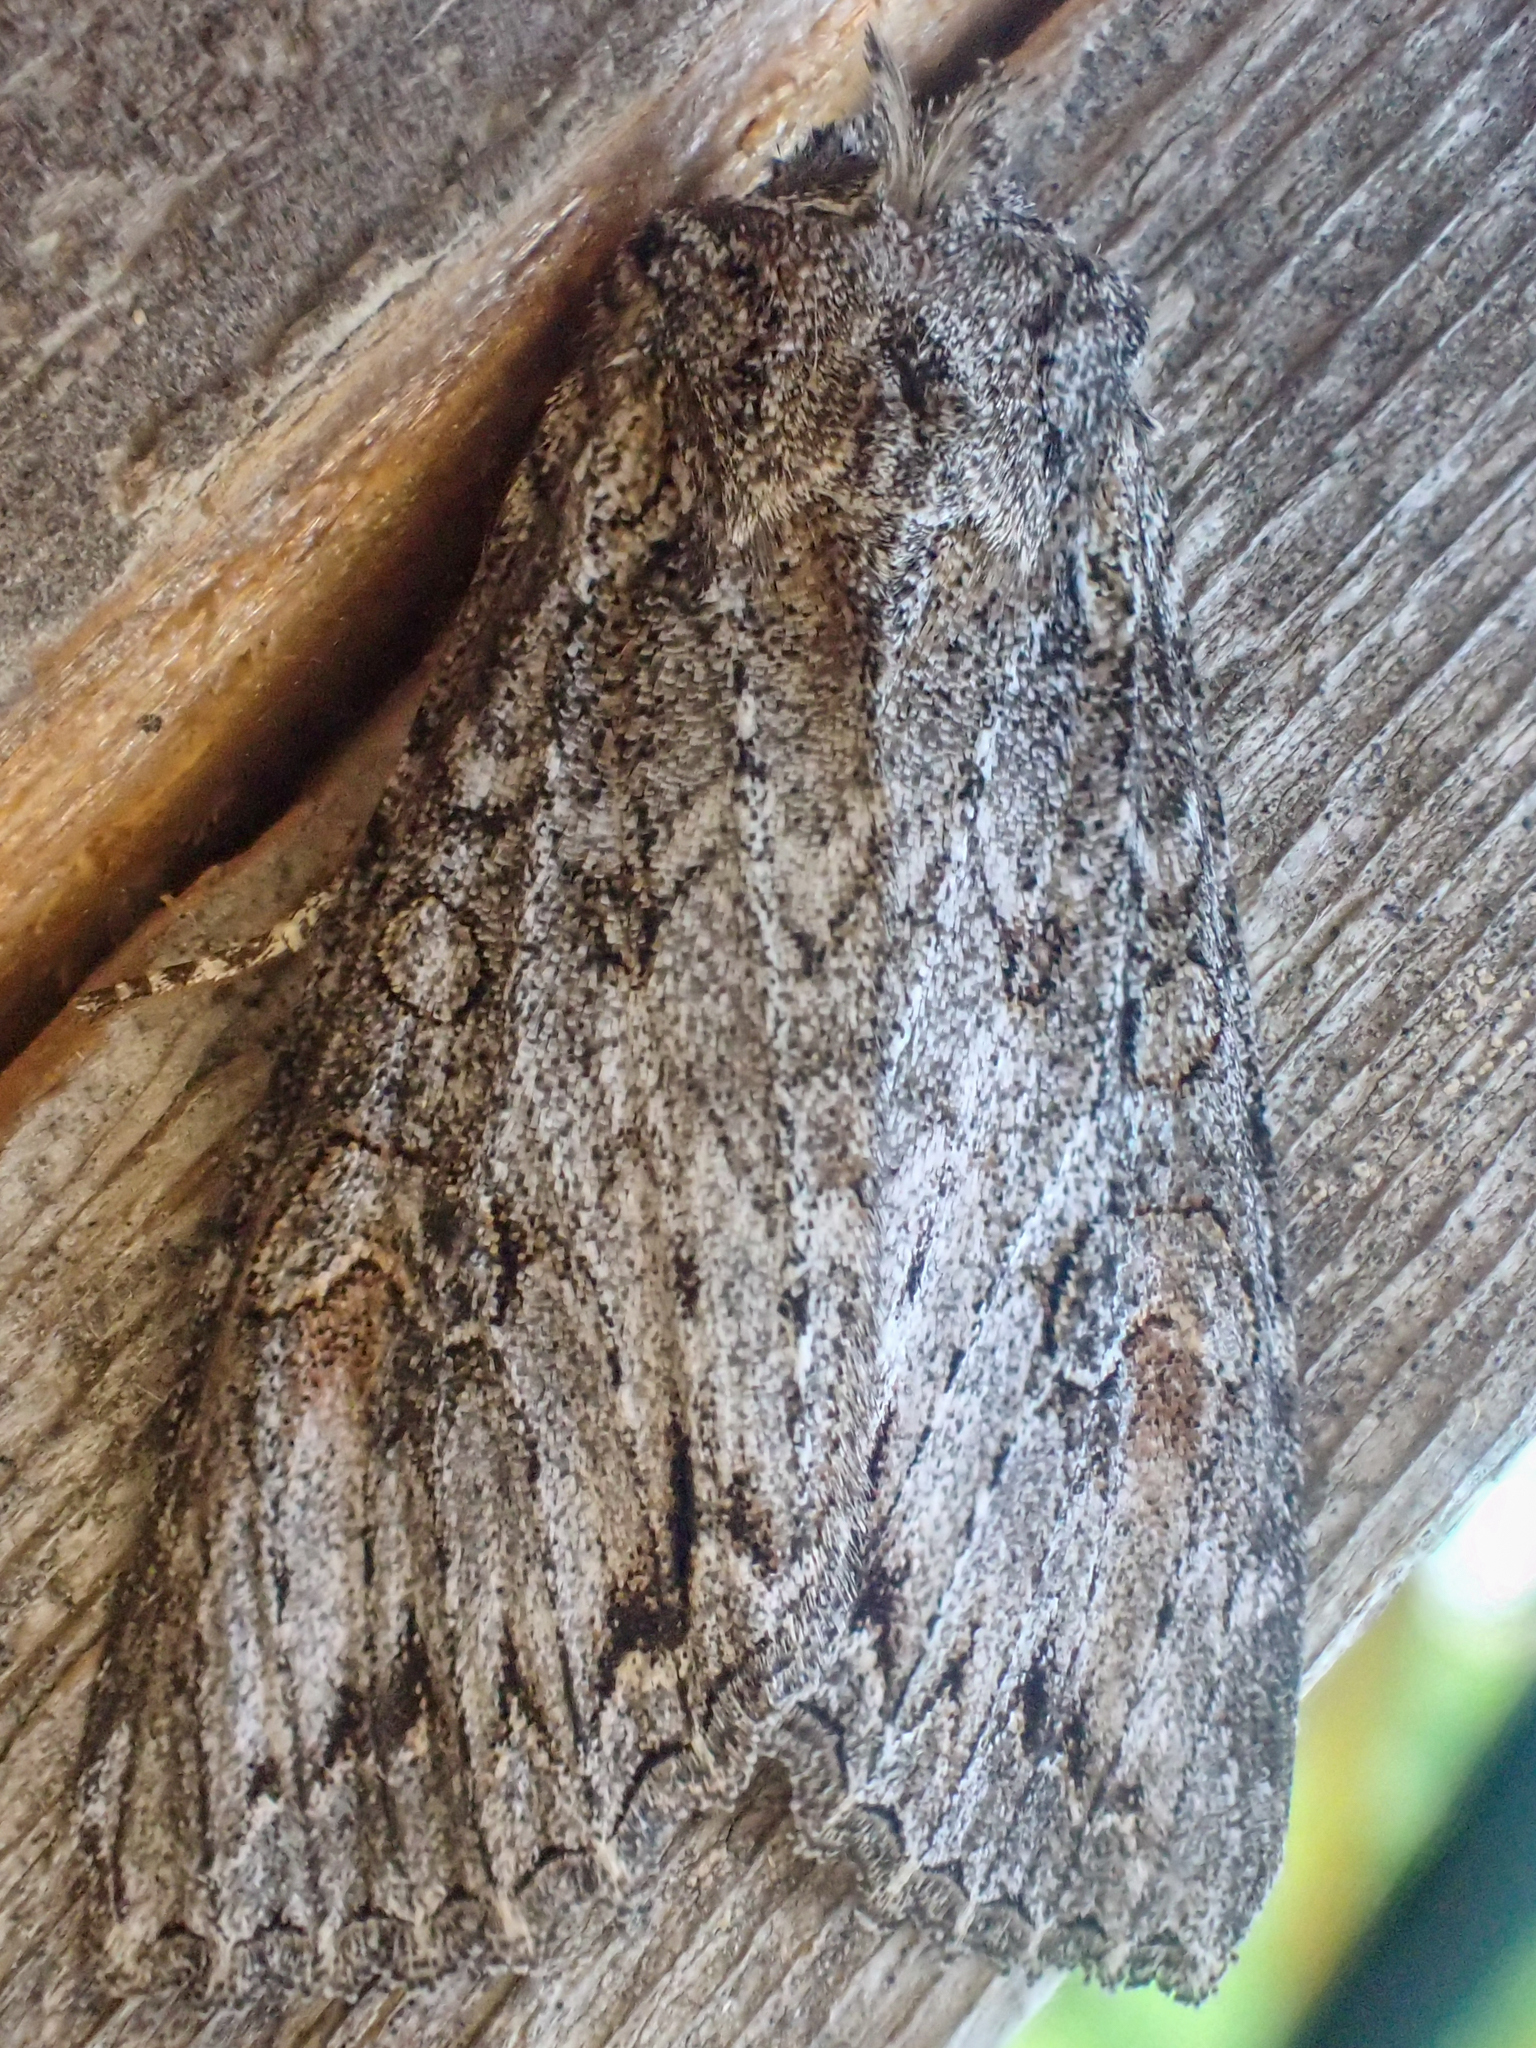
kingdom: Animalia
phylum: Arthropoda
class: Insecta
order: Lepidoptera
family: Noctuidae
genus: Polia
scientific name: Polia purpurissata
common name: Purple arches moth
